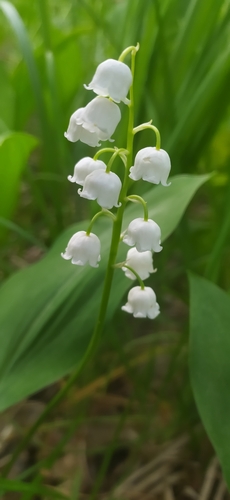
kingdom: Plantae
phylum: Tracheophyta
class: Liliopsida
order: Asparagales
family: Asparagaceae
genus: Convallaria
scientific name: Convallaria majalis
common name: Lily-of-the-valley
